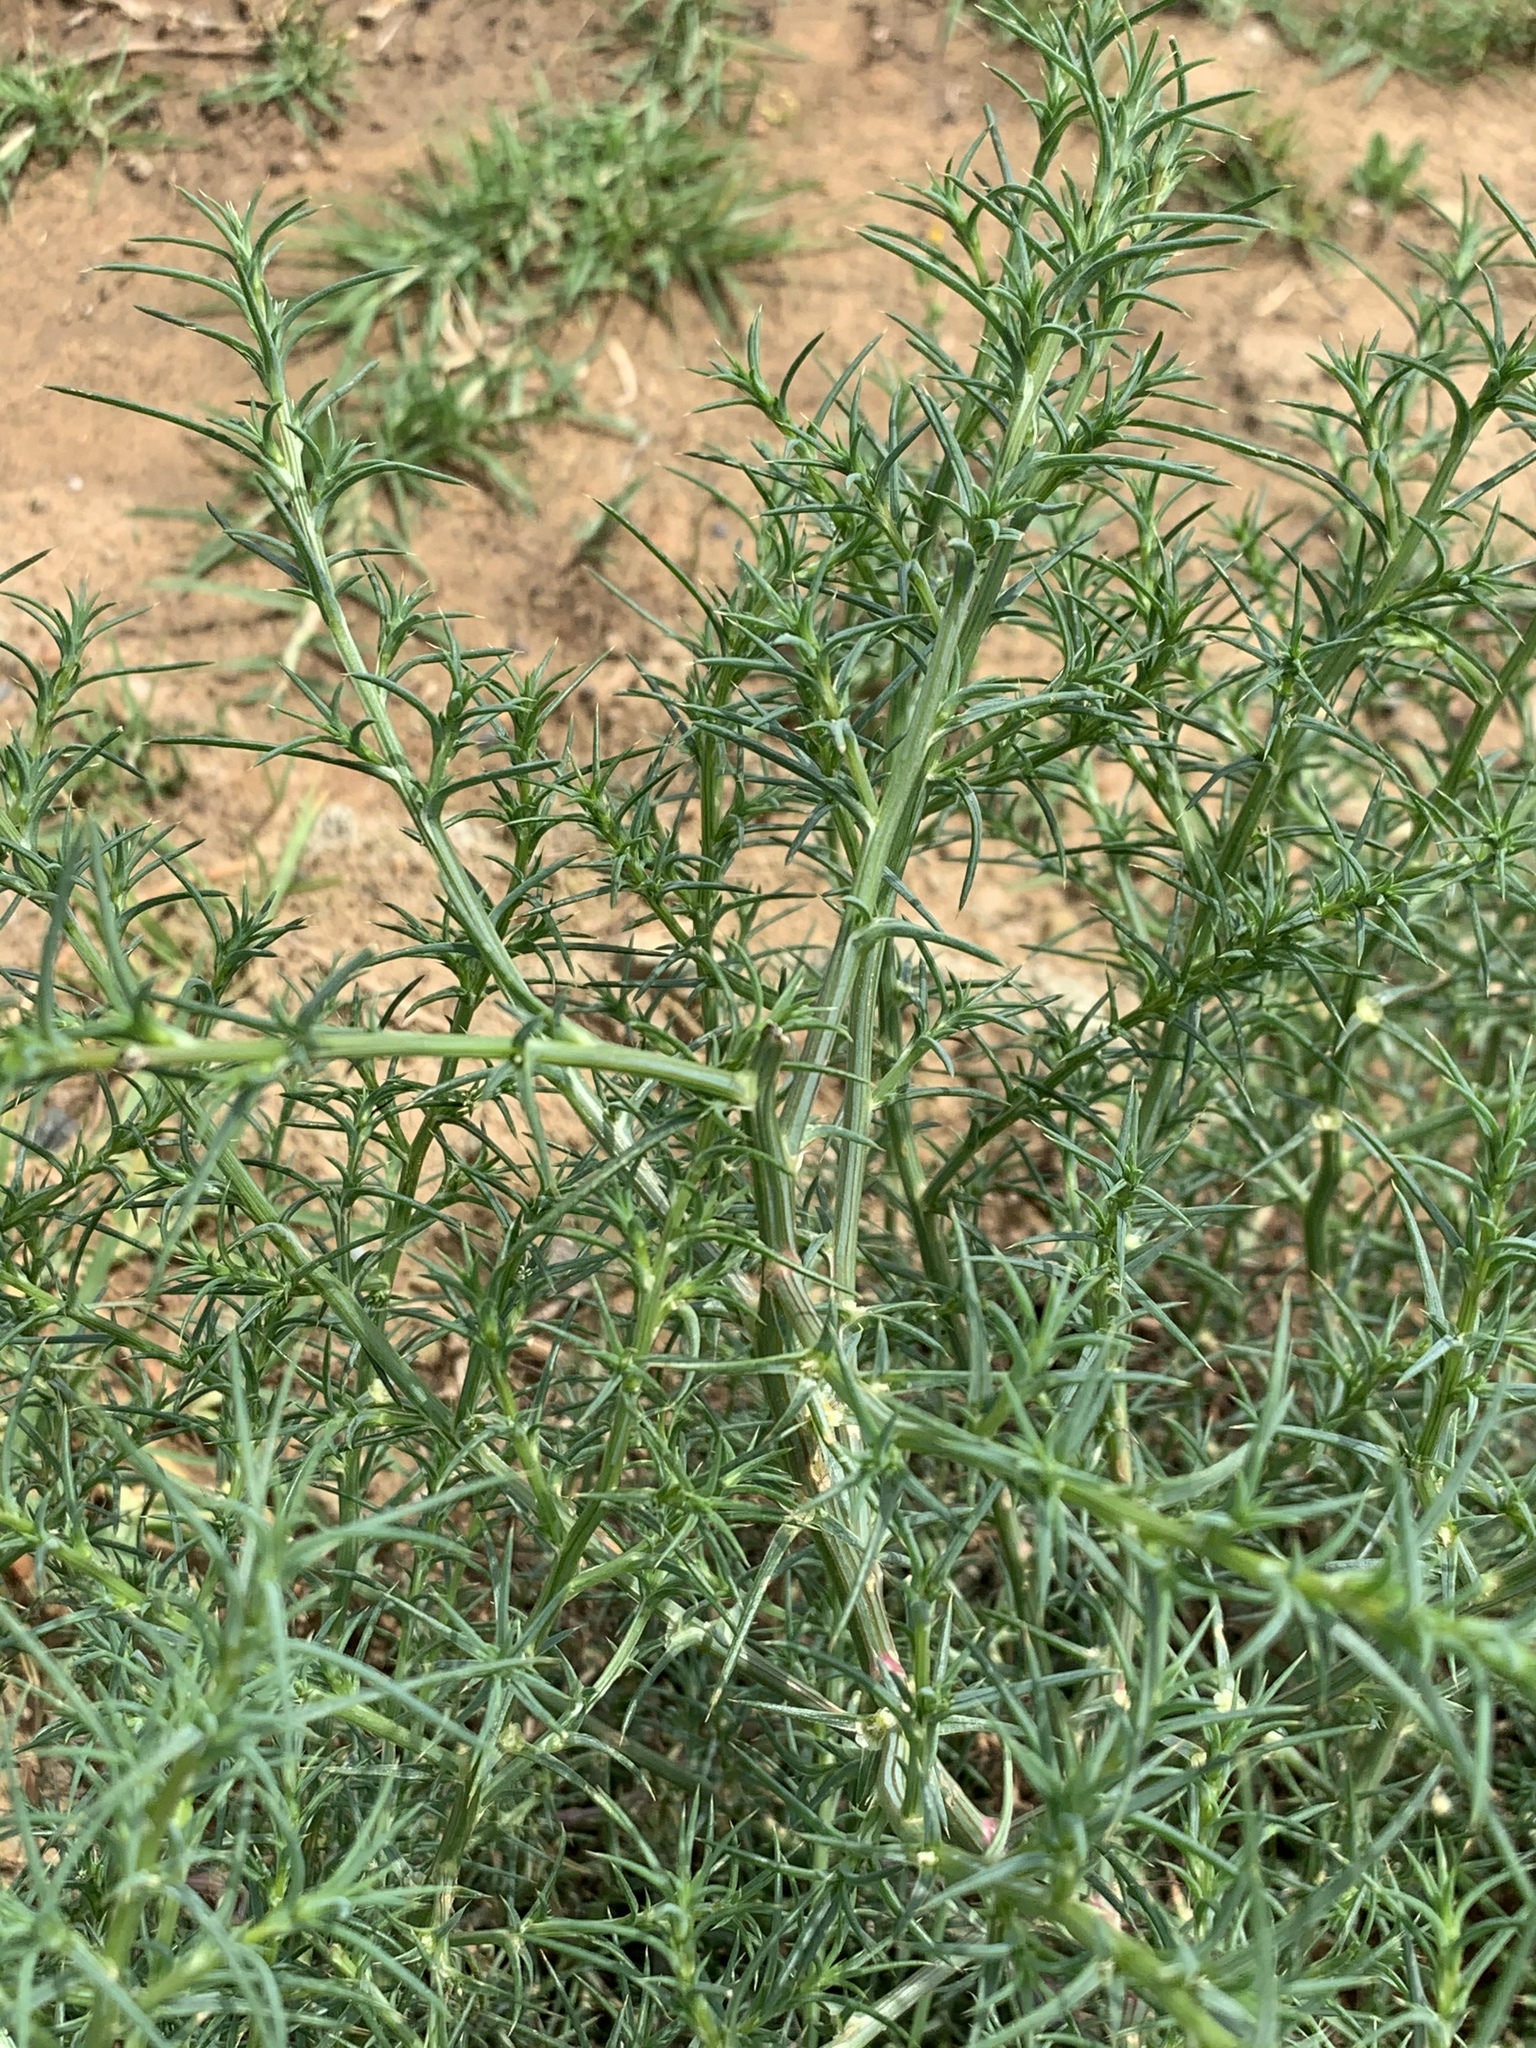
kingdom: Plantae
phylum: Tracheophyta
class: Magnoliopsida
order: Caryophyllales
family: Amaranthaceae
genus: Salsola
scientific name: Salsola kali
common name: Saltwort
